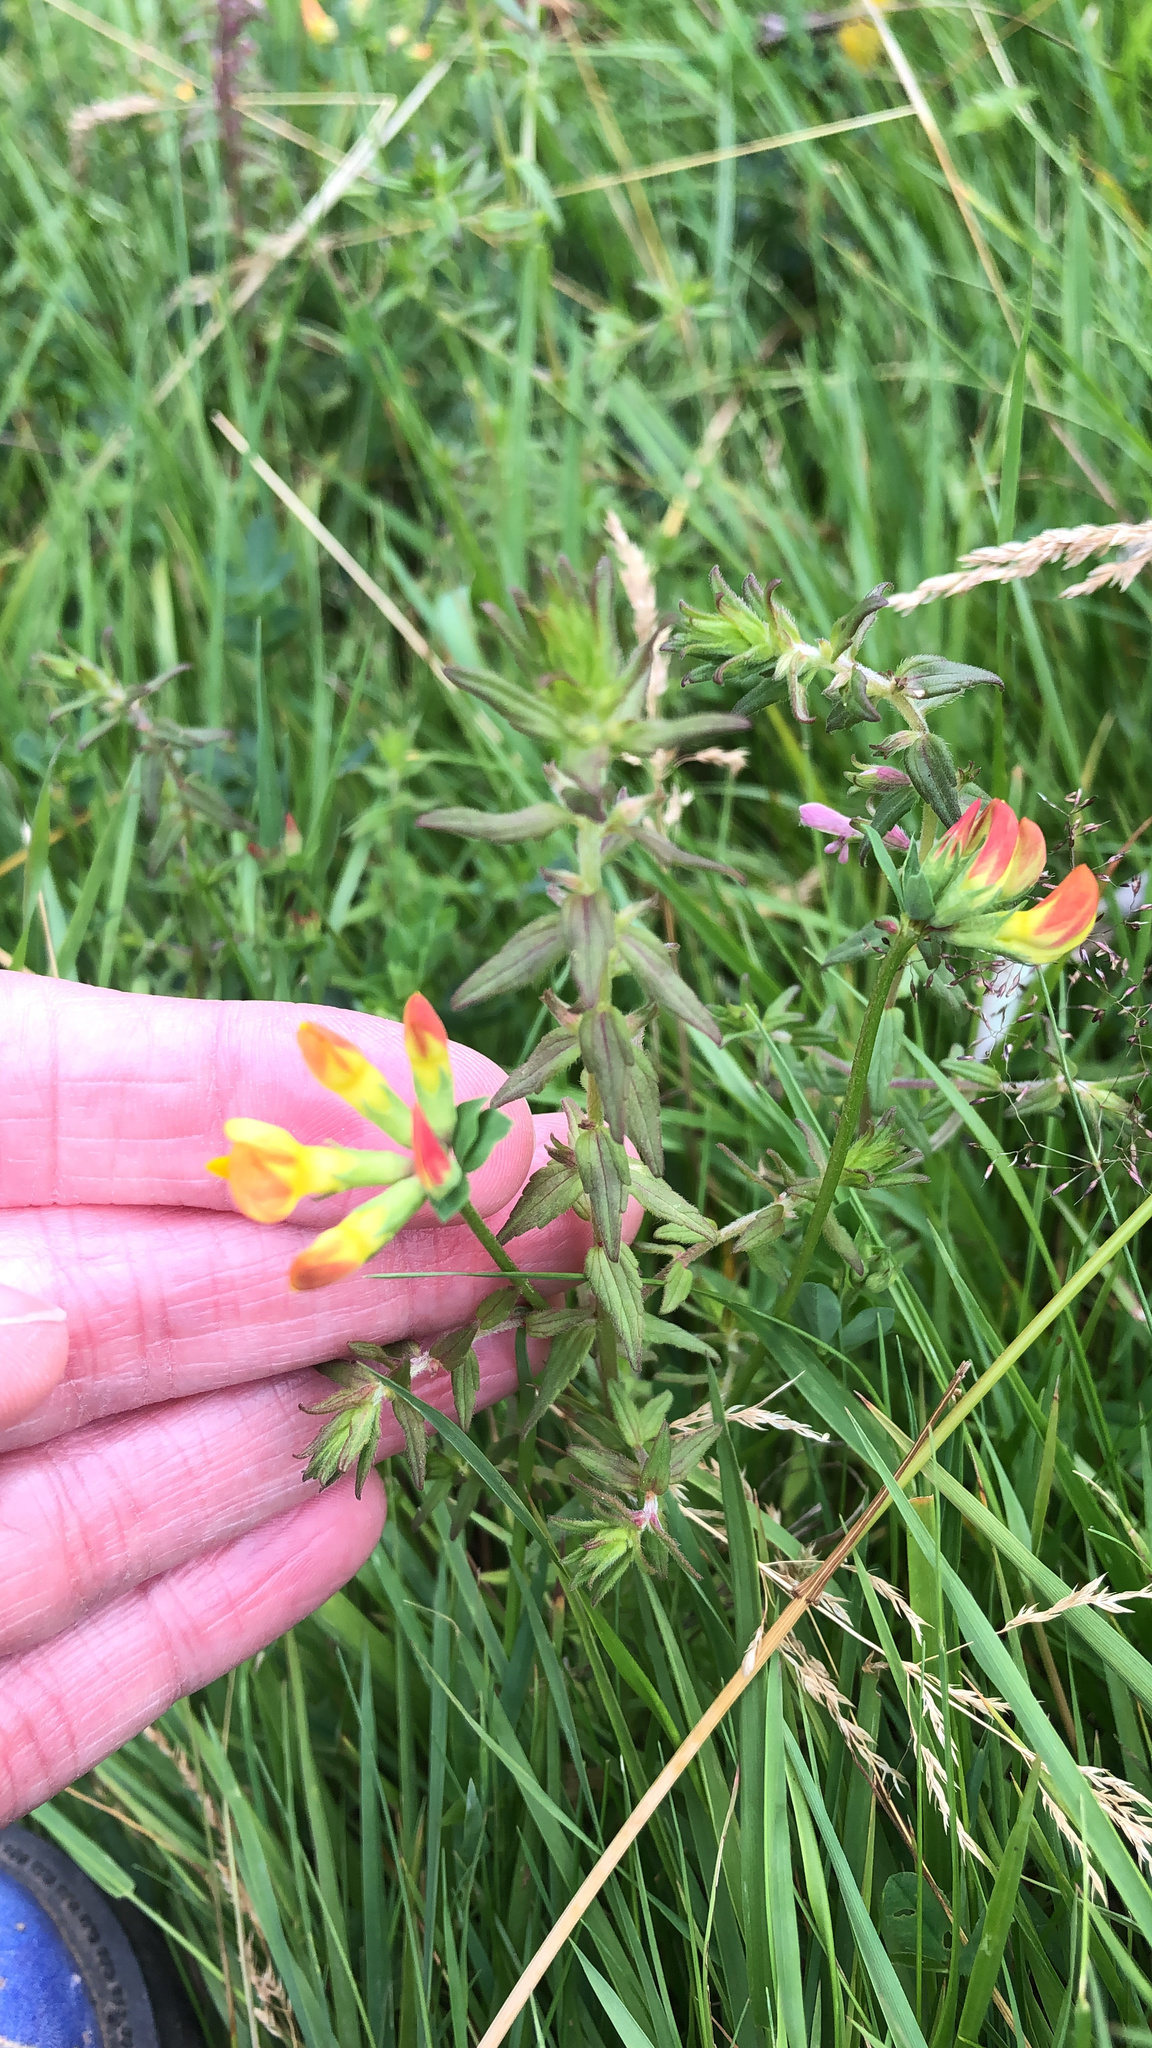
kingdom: Plantae
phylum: Tracheophyta
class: Magnoliopsida
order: Fabales
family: Fabaceae
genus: Lotus
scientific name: Lotus corniculatus
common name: Common bird's-foot-trefoil
